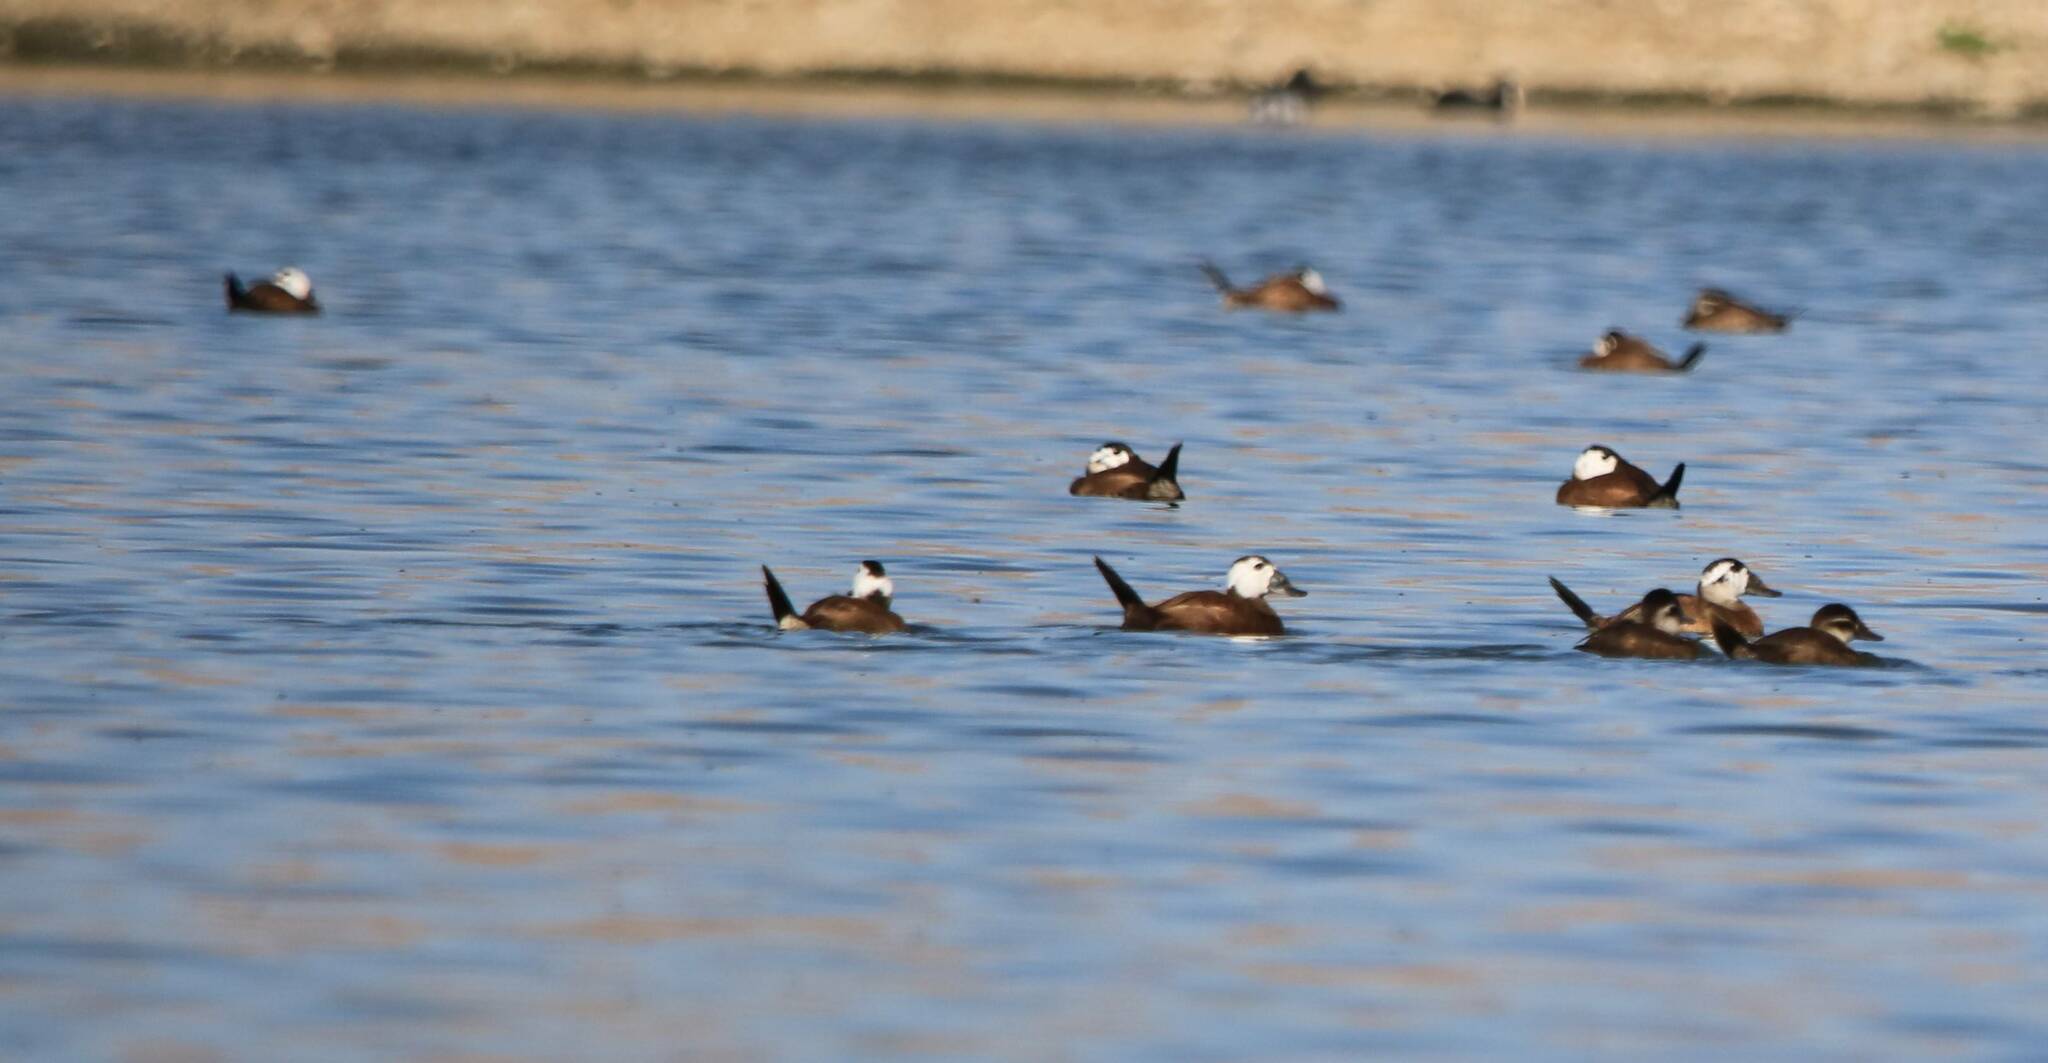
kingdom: Animalia
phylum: Chordata
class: Aves
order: Anseriformes
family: Anatidae
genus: Oxyura
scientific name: Oxyura leucocephala
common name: White-headed duck
